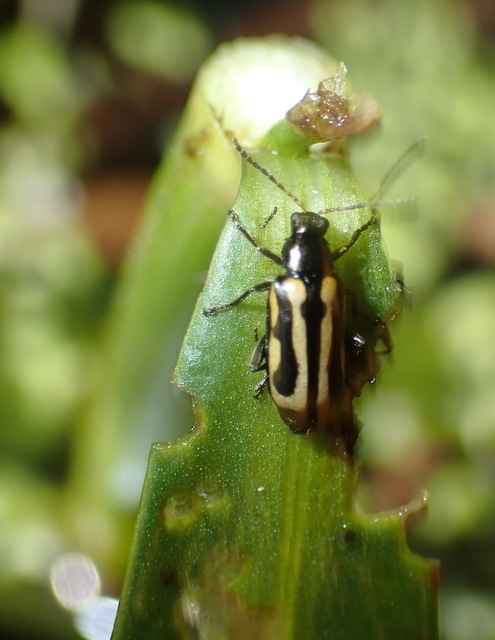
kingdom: Animalia
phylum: Arthropoda
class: Insecta
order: Coleoptera
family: Chrysomelidae
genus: Agasicles
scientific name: Agasicles hygrophila
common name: Alligatorweed flea beetle
